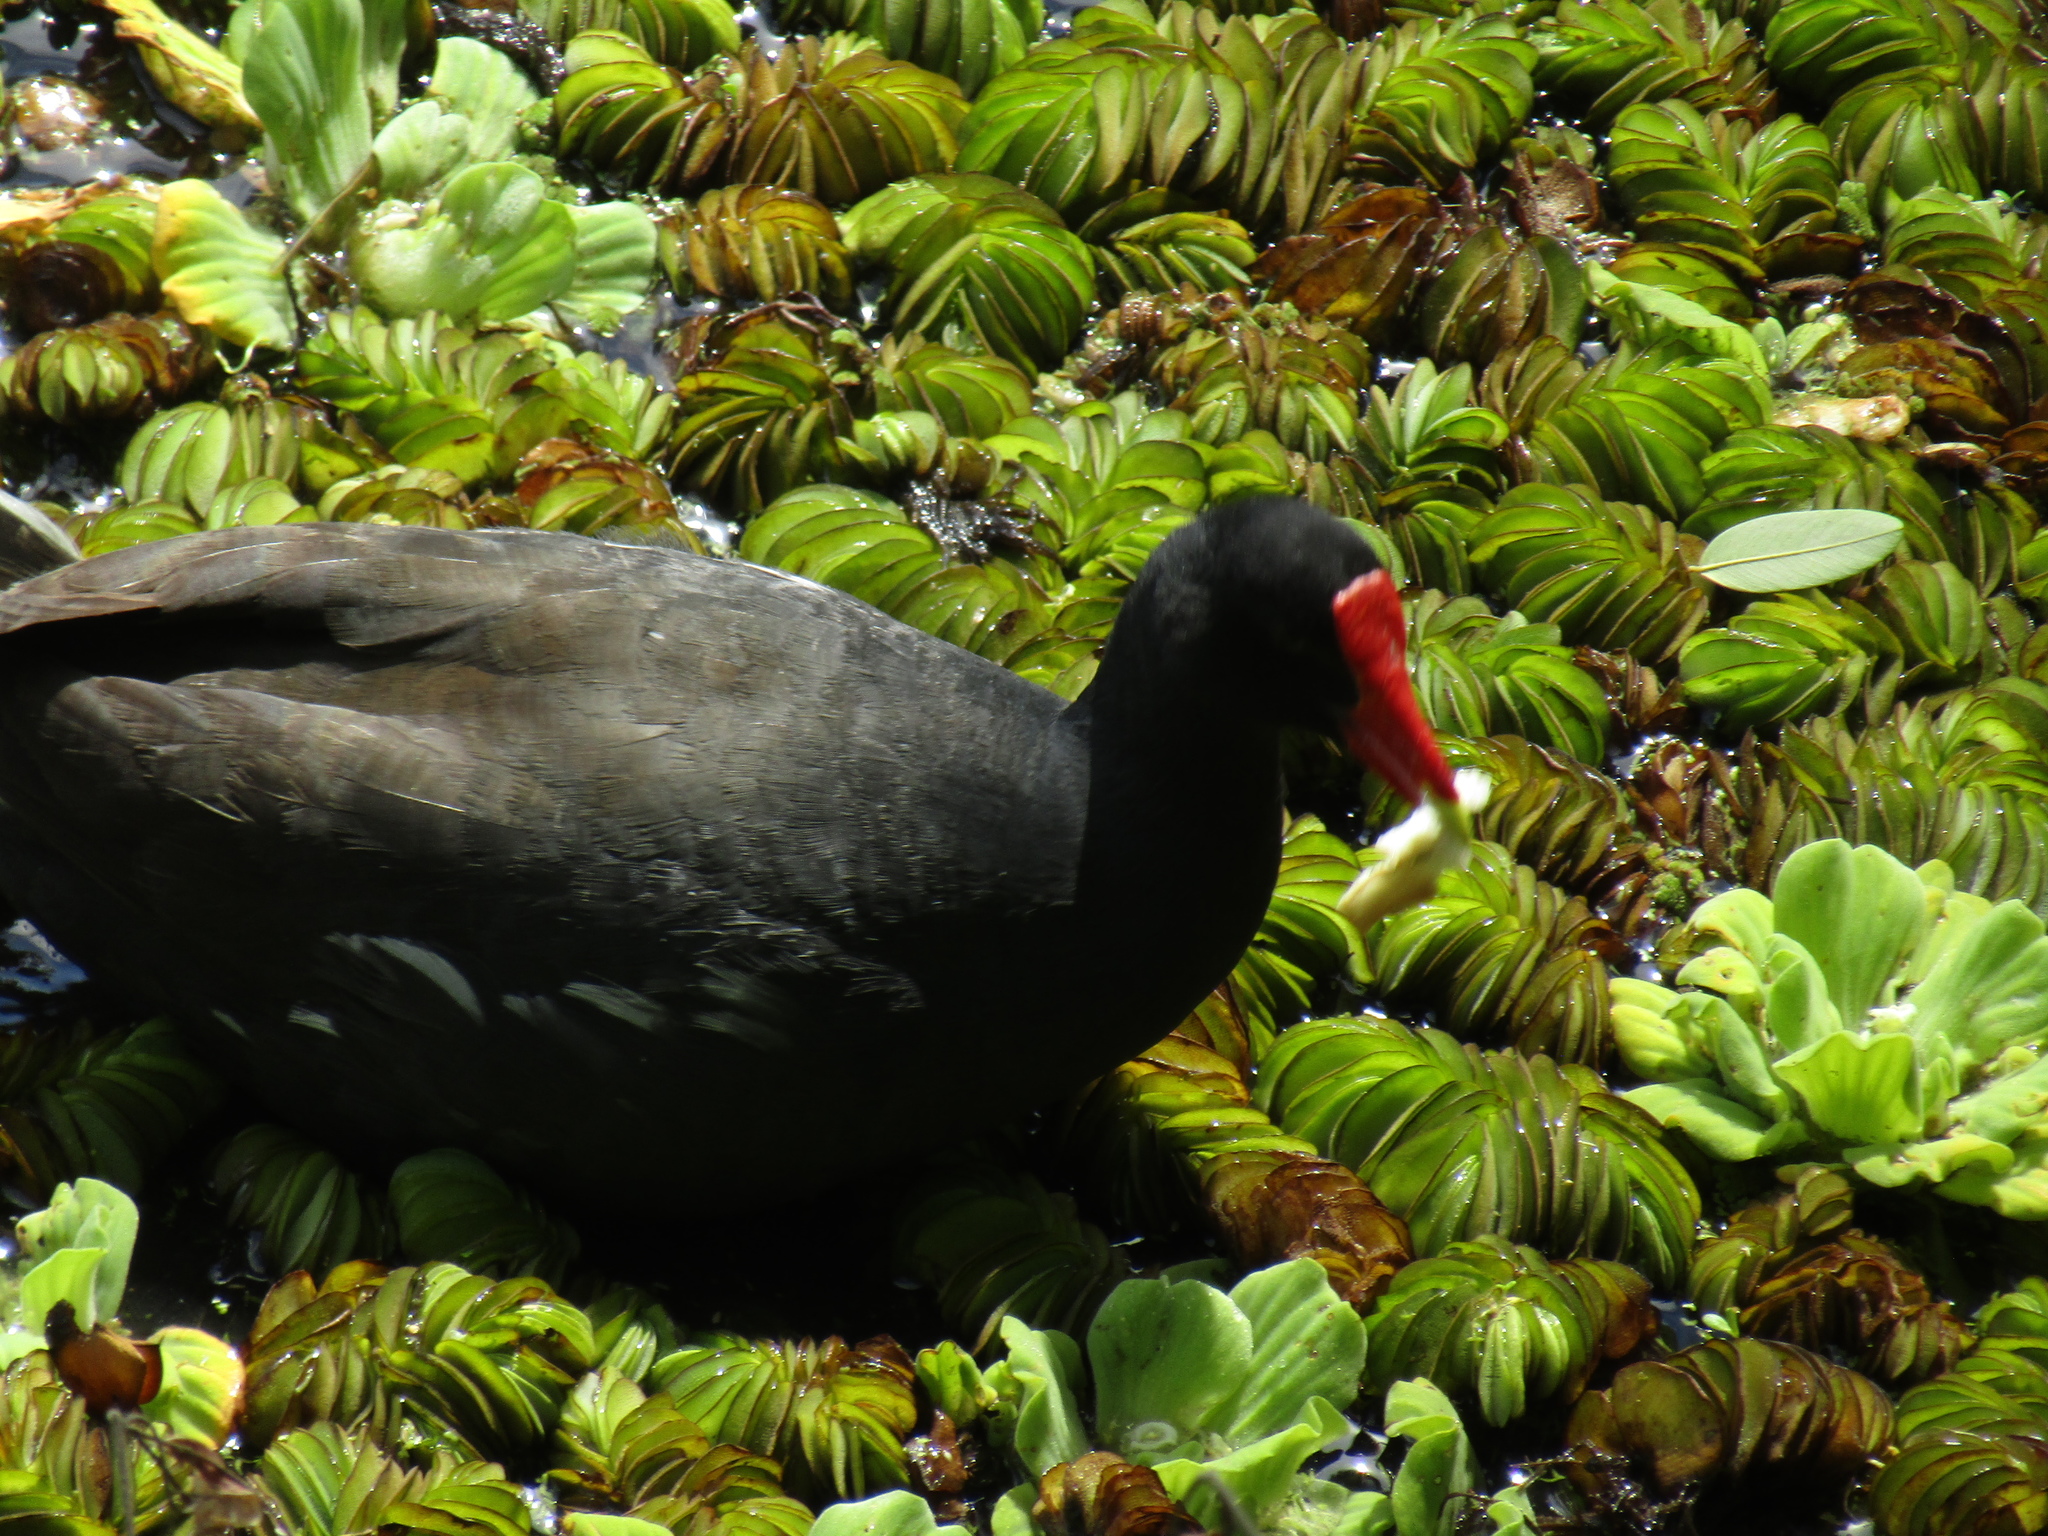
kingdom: Animalia
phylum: Chordata
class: Aves
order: Gruiformes
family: Rallidae
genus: Gallinula
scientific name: Gallinula chloropus
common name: Common moorhen
